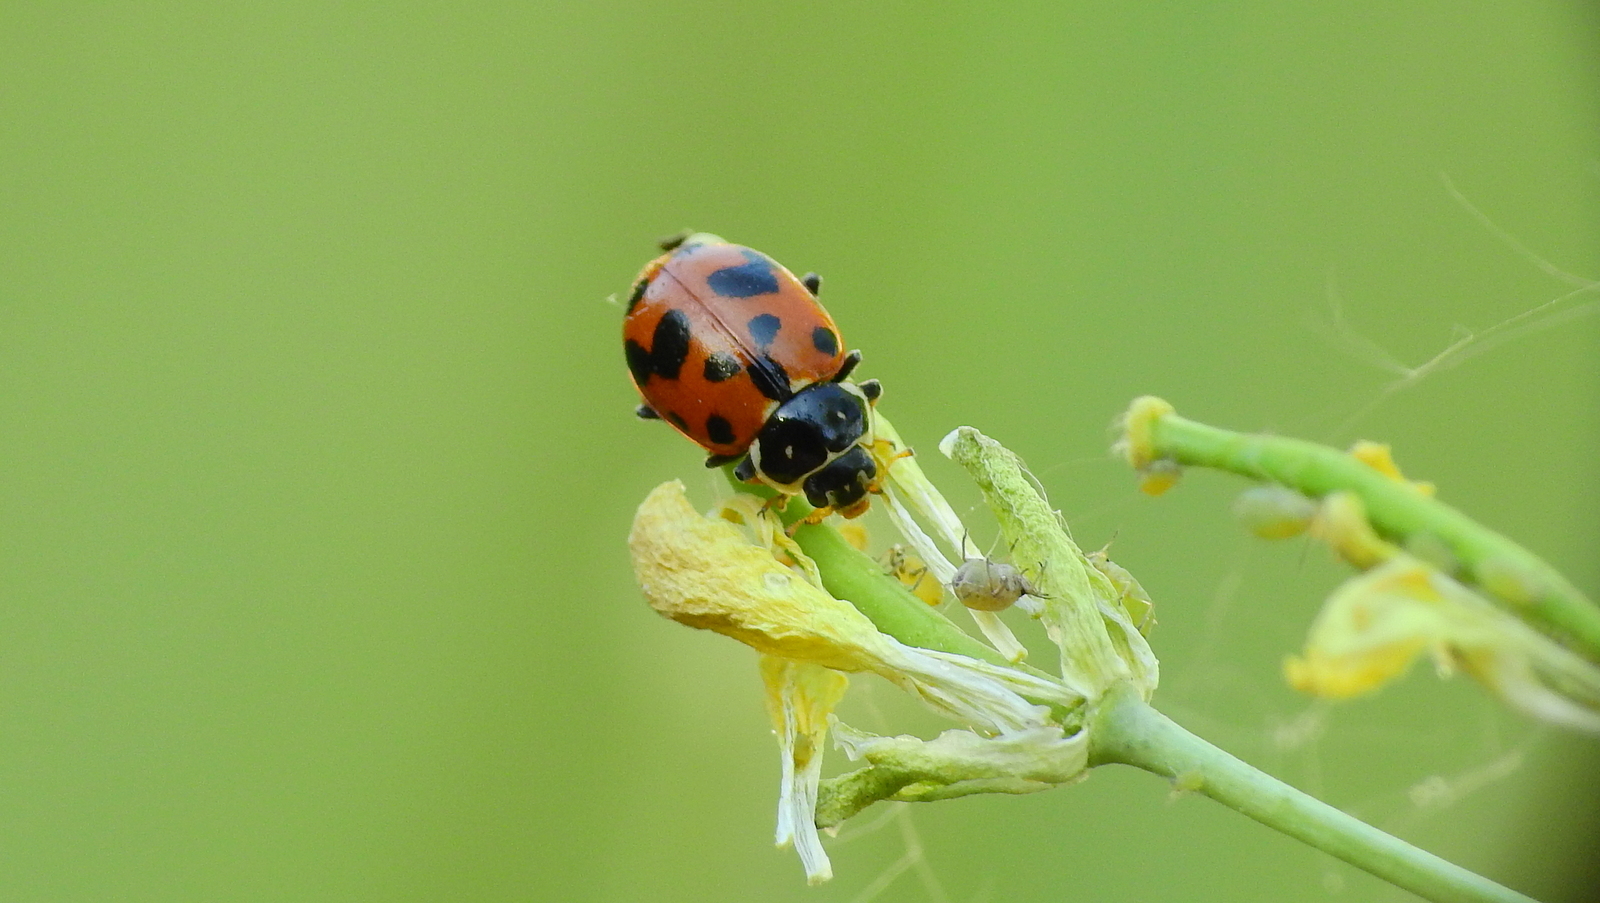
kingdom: Animalia
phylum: Arthropoda
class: Insecta
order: Coleoptera
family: Coccinellidae
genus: Hippodamia
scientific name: Hippodamia variegata
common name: Ladybird beetle
